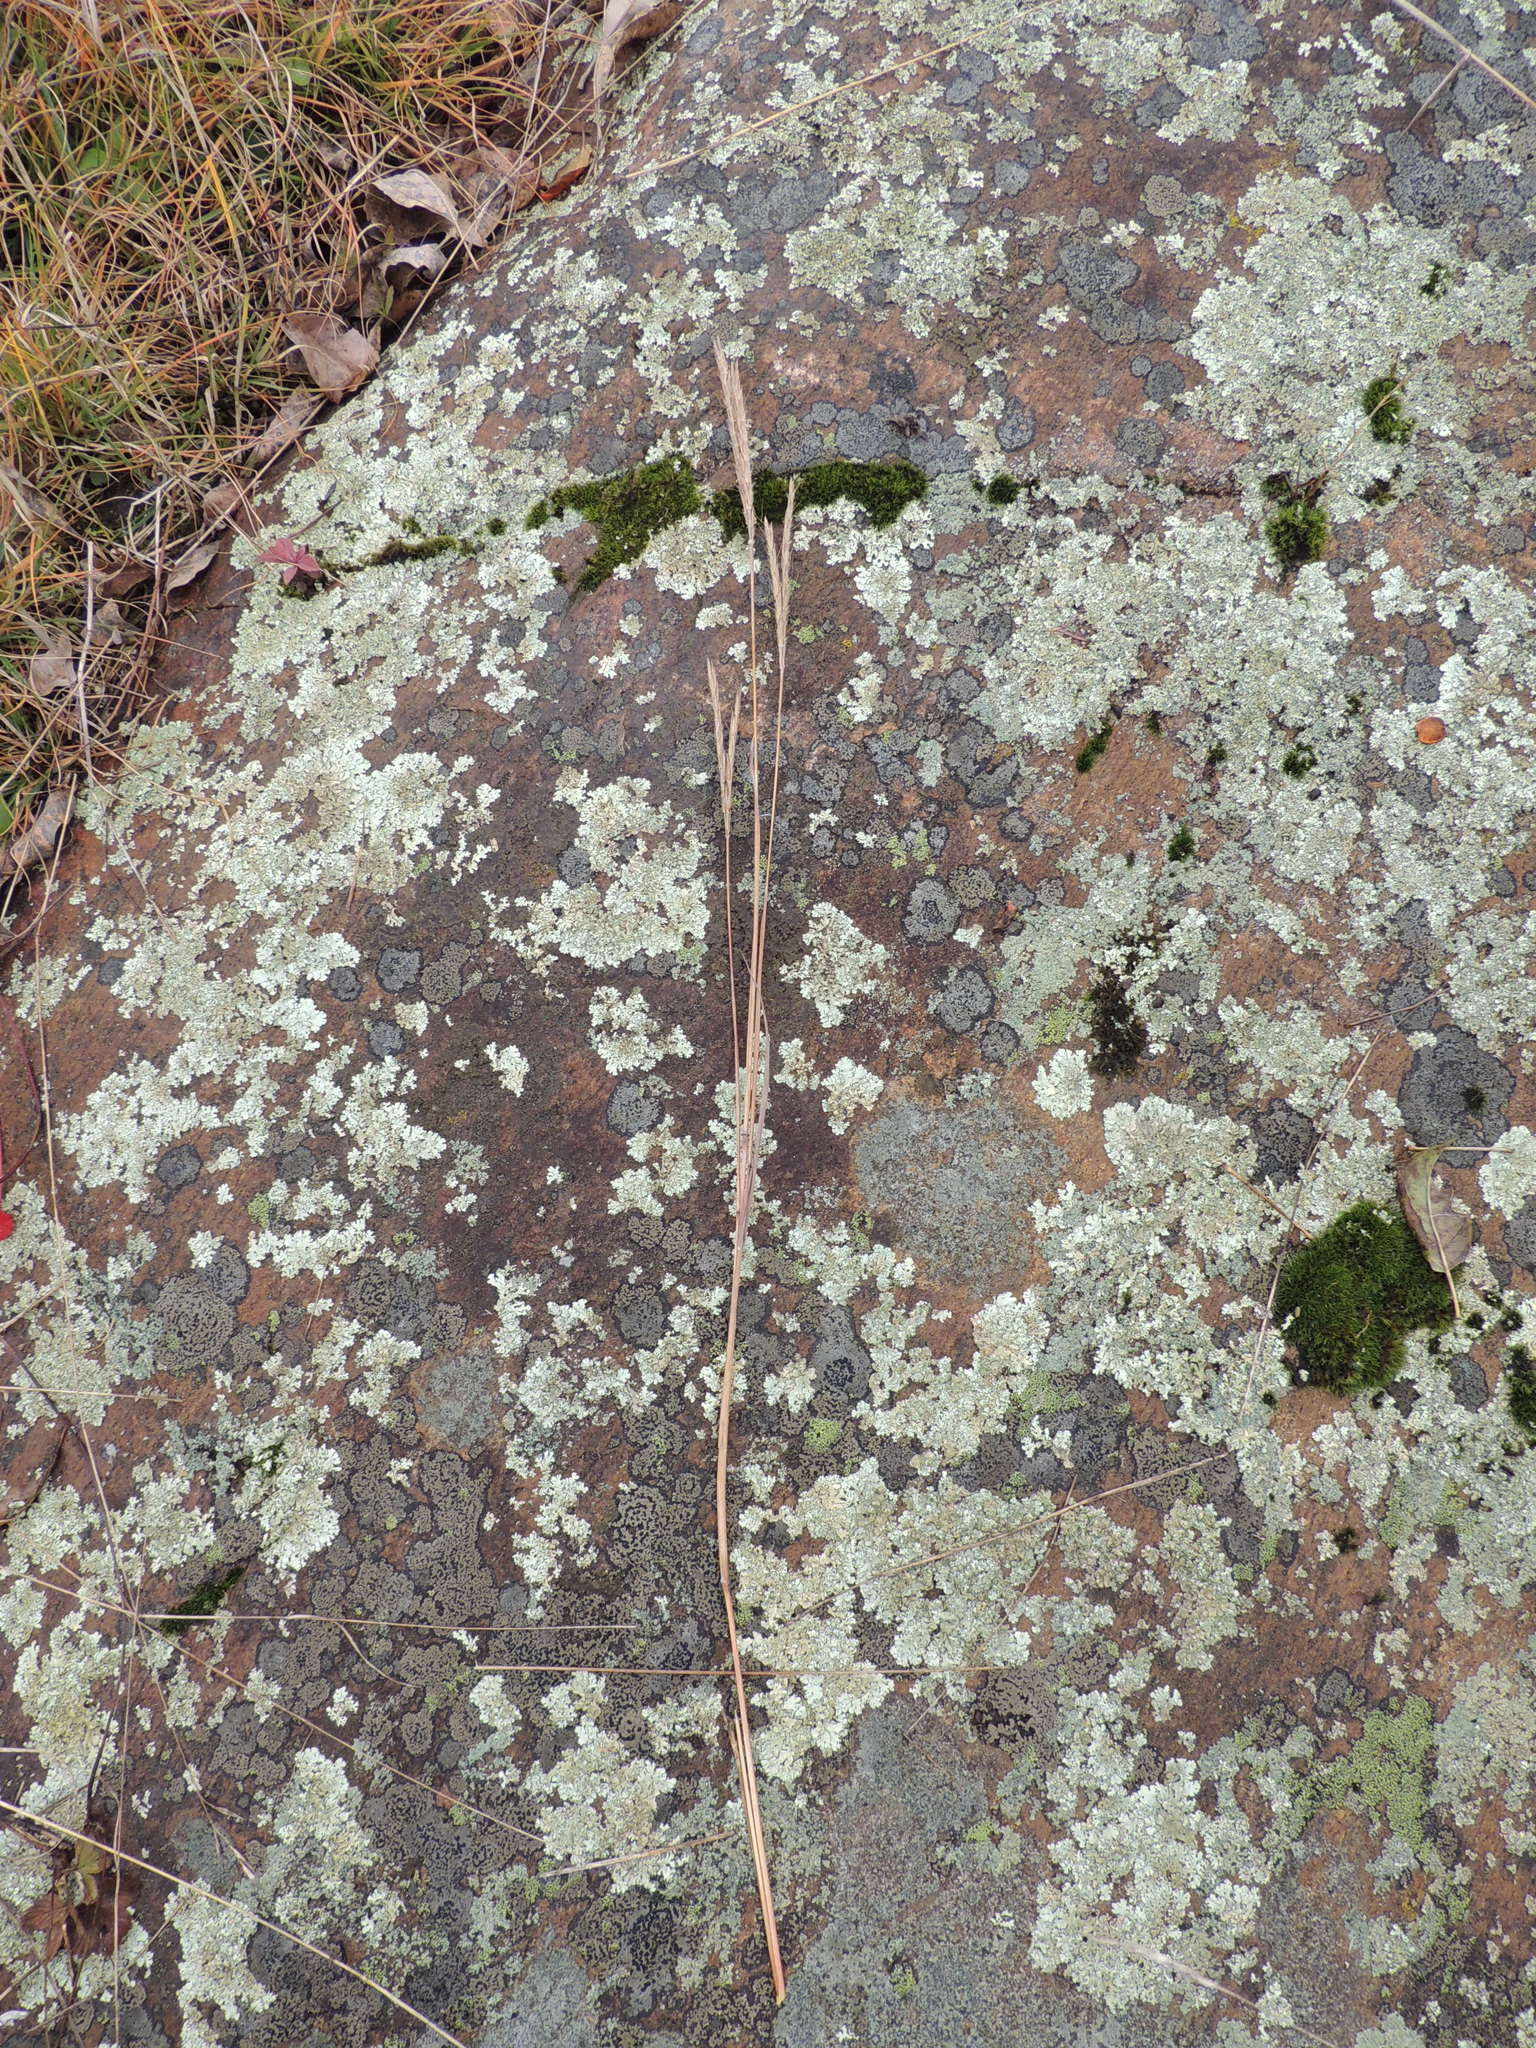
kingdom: Plantae
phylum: Tracheophyta
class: Liliopsida
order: Poales
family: Poaceae
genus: Andropogon
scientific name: Andropogon gerardi
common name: Big bluestem
